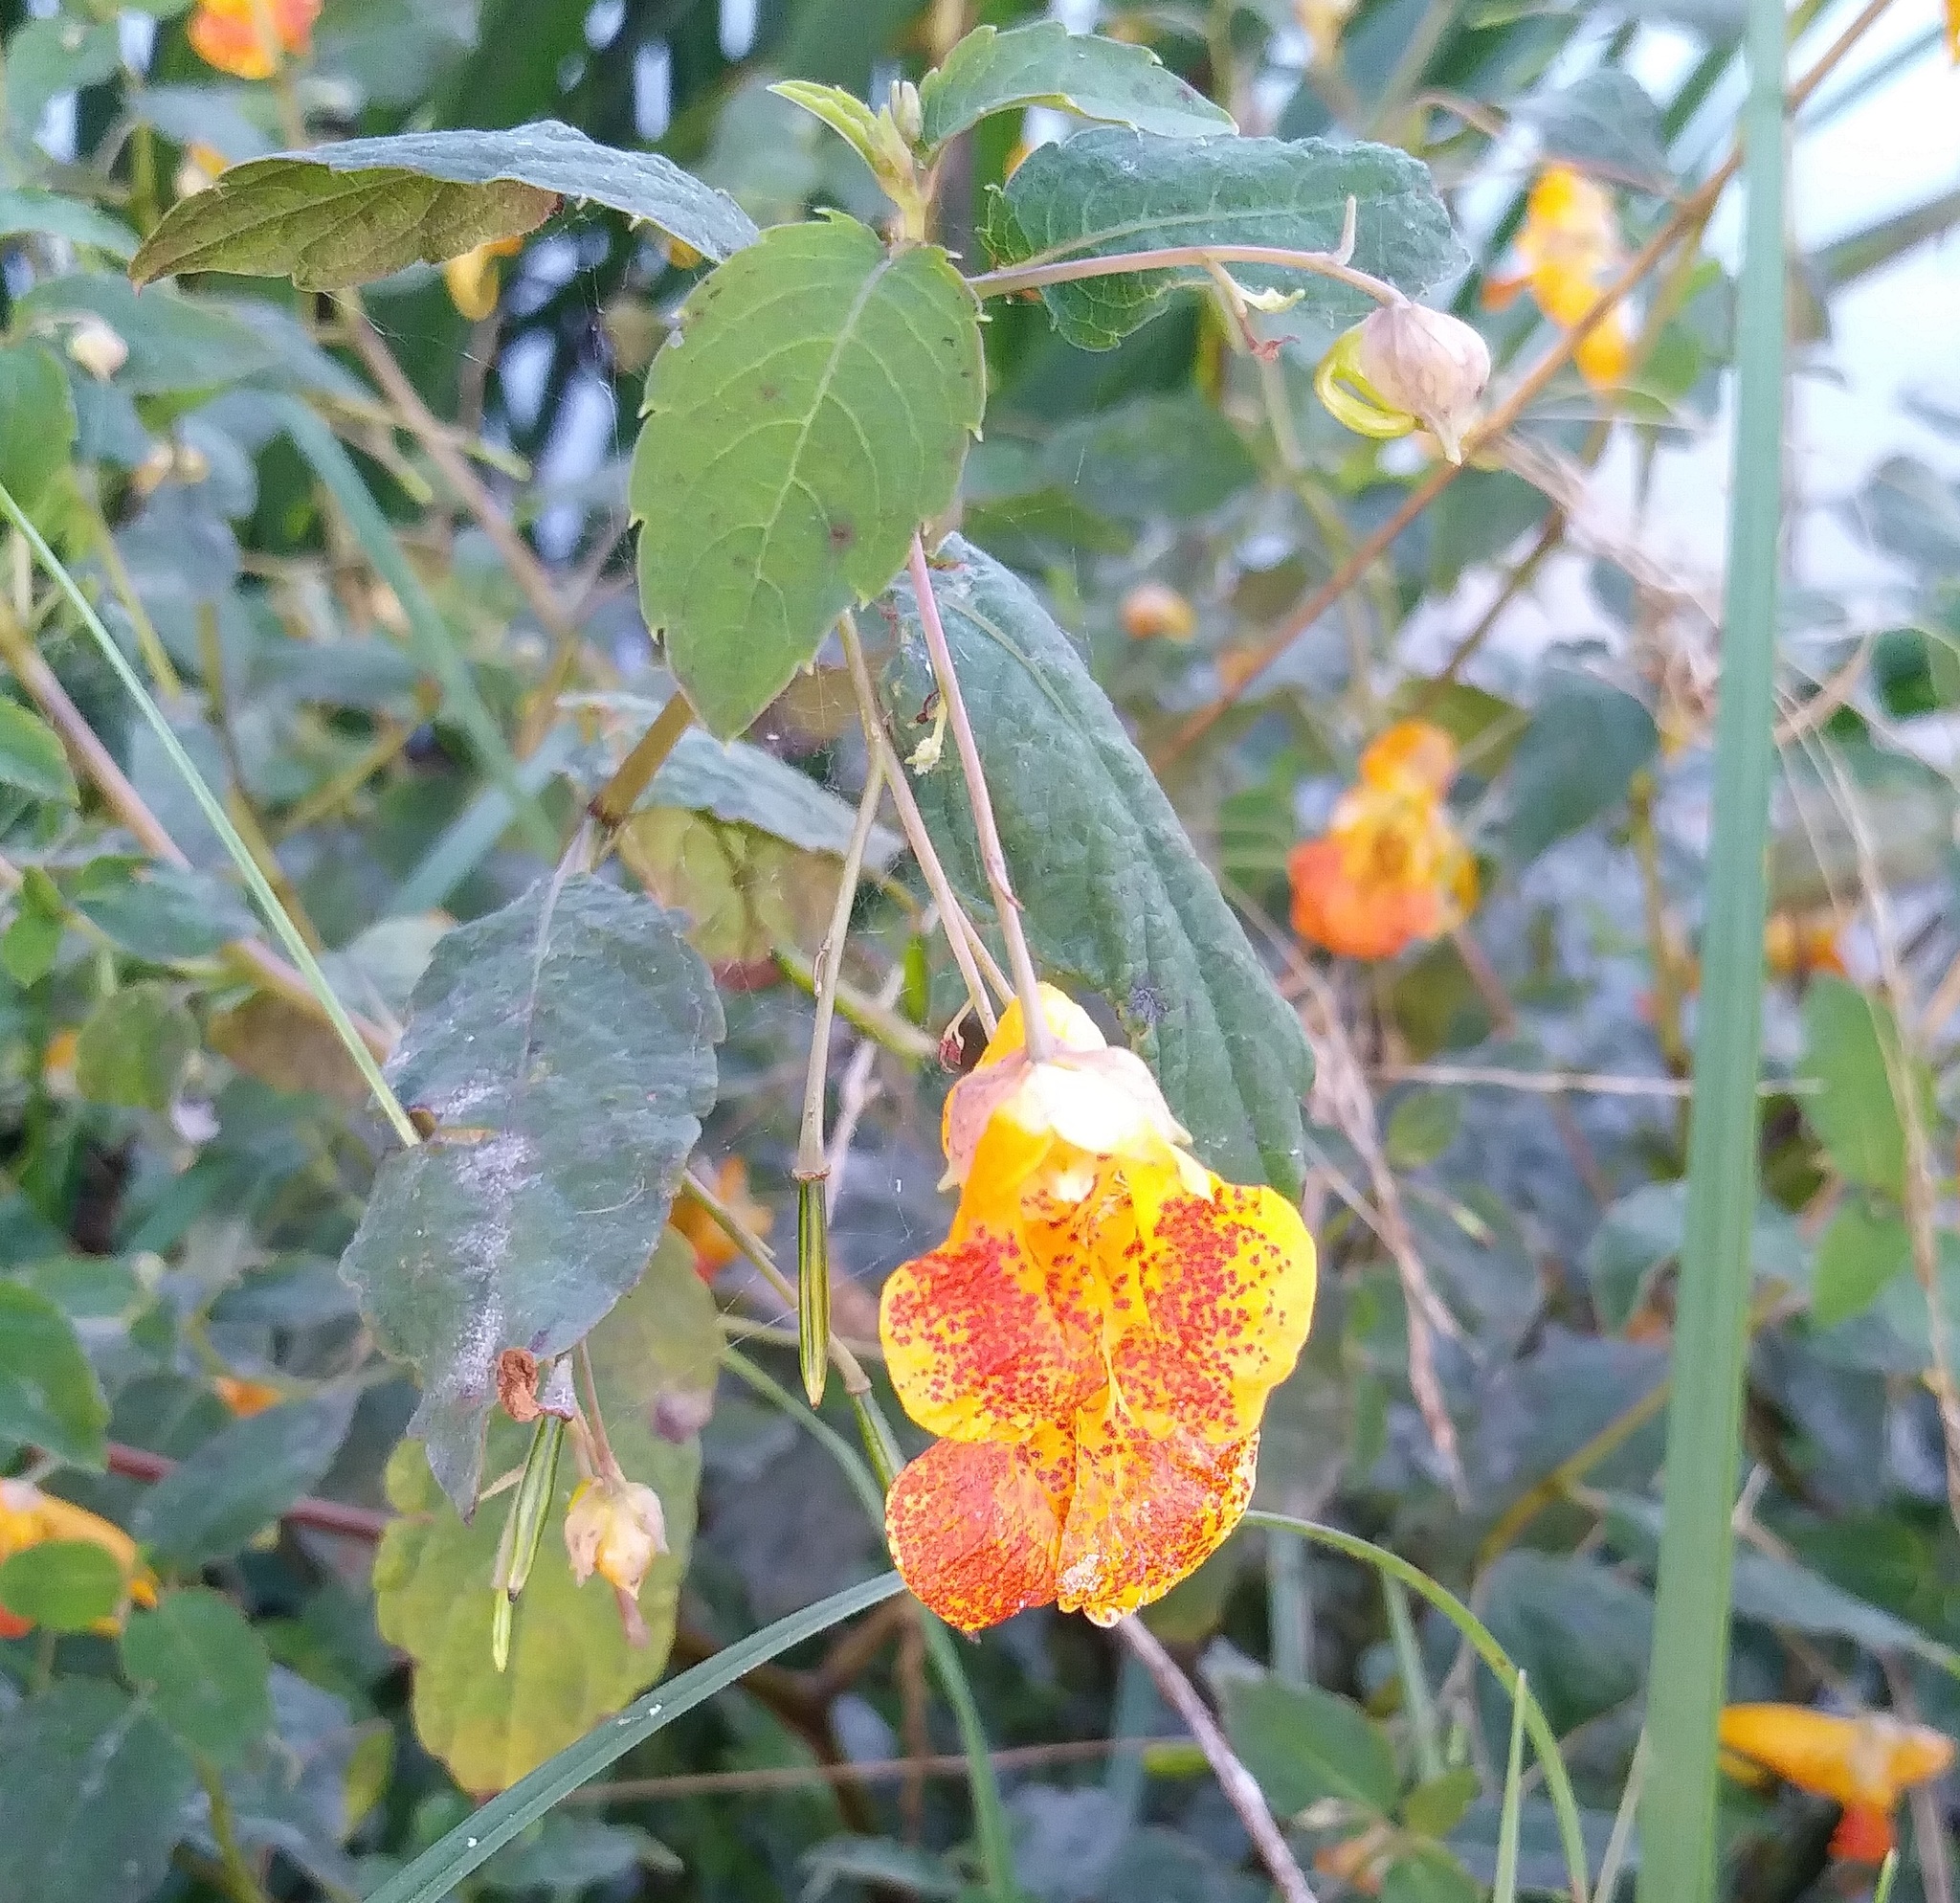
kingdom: Plantae
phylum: Tracheophyta
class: Magnoliopsida
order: Ericales
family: Balsaminaceae
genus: Impatiens
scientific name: Impatiens capensis
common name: Orange balsam
